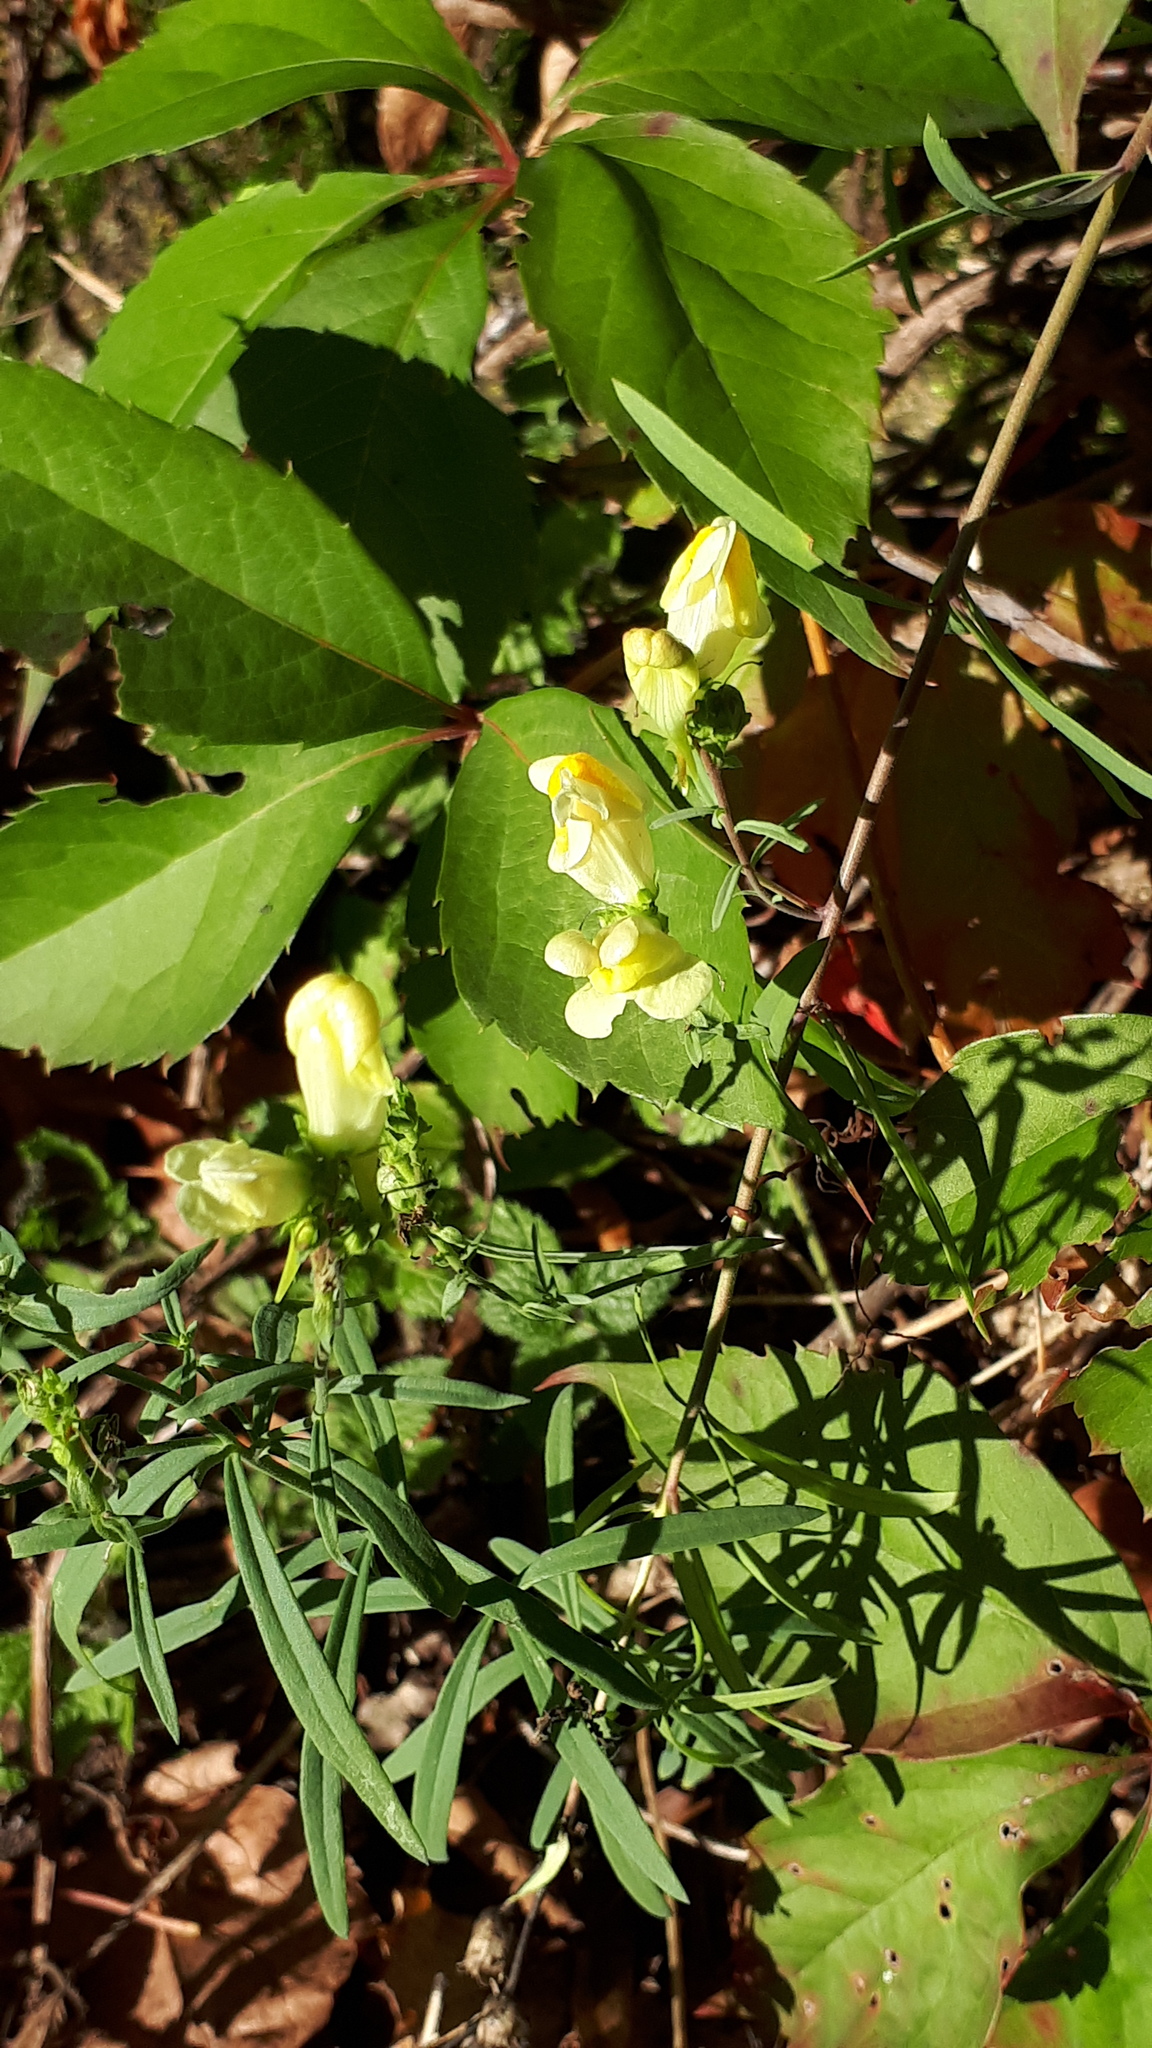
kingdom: Plantae
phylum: Tracheophyta
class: Magnoliopsida
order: Lamiales
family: Plantaginaceae
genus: Linaria
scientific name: Linaria vulgaris
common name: Butter and eggs
